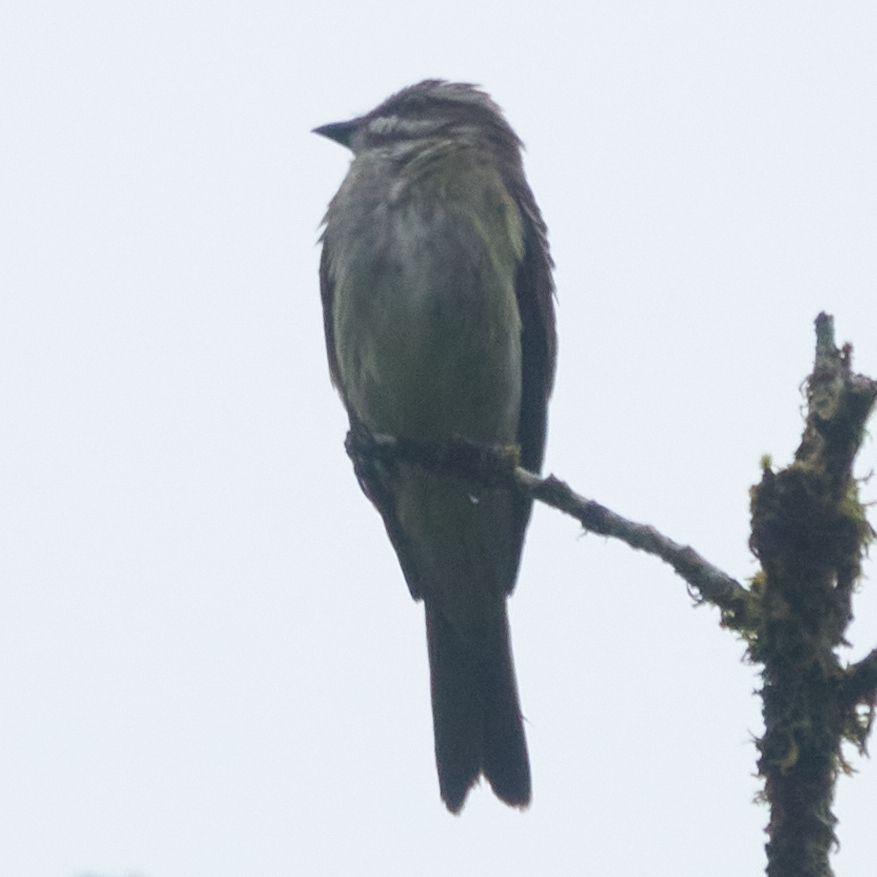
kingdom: Animalia
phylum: Chordata
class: Aves
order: Passeriformes
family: Tyrannidae
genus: Legatus
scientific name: Legatus leucophaius
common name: Piratic flycatcher
